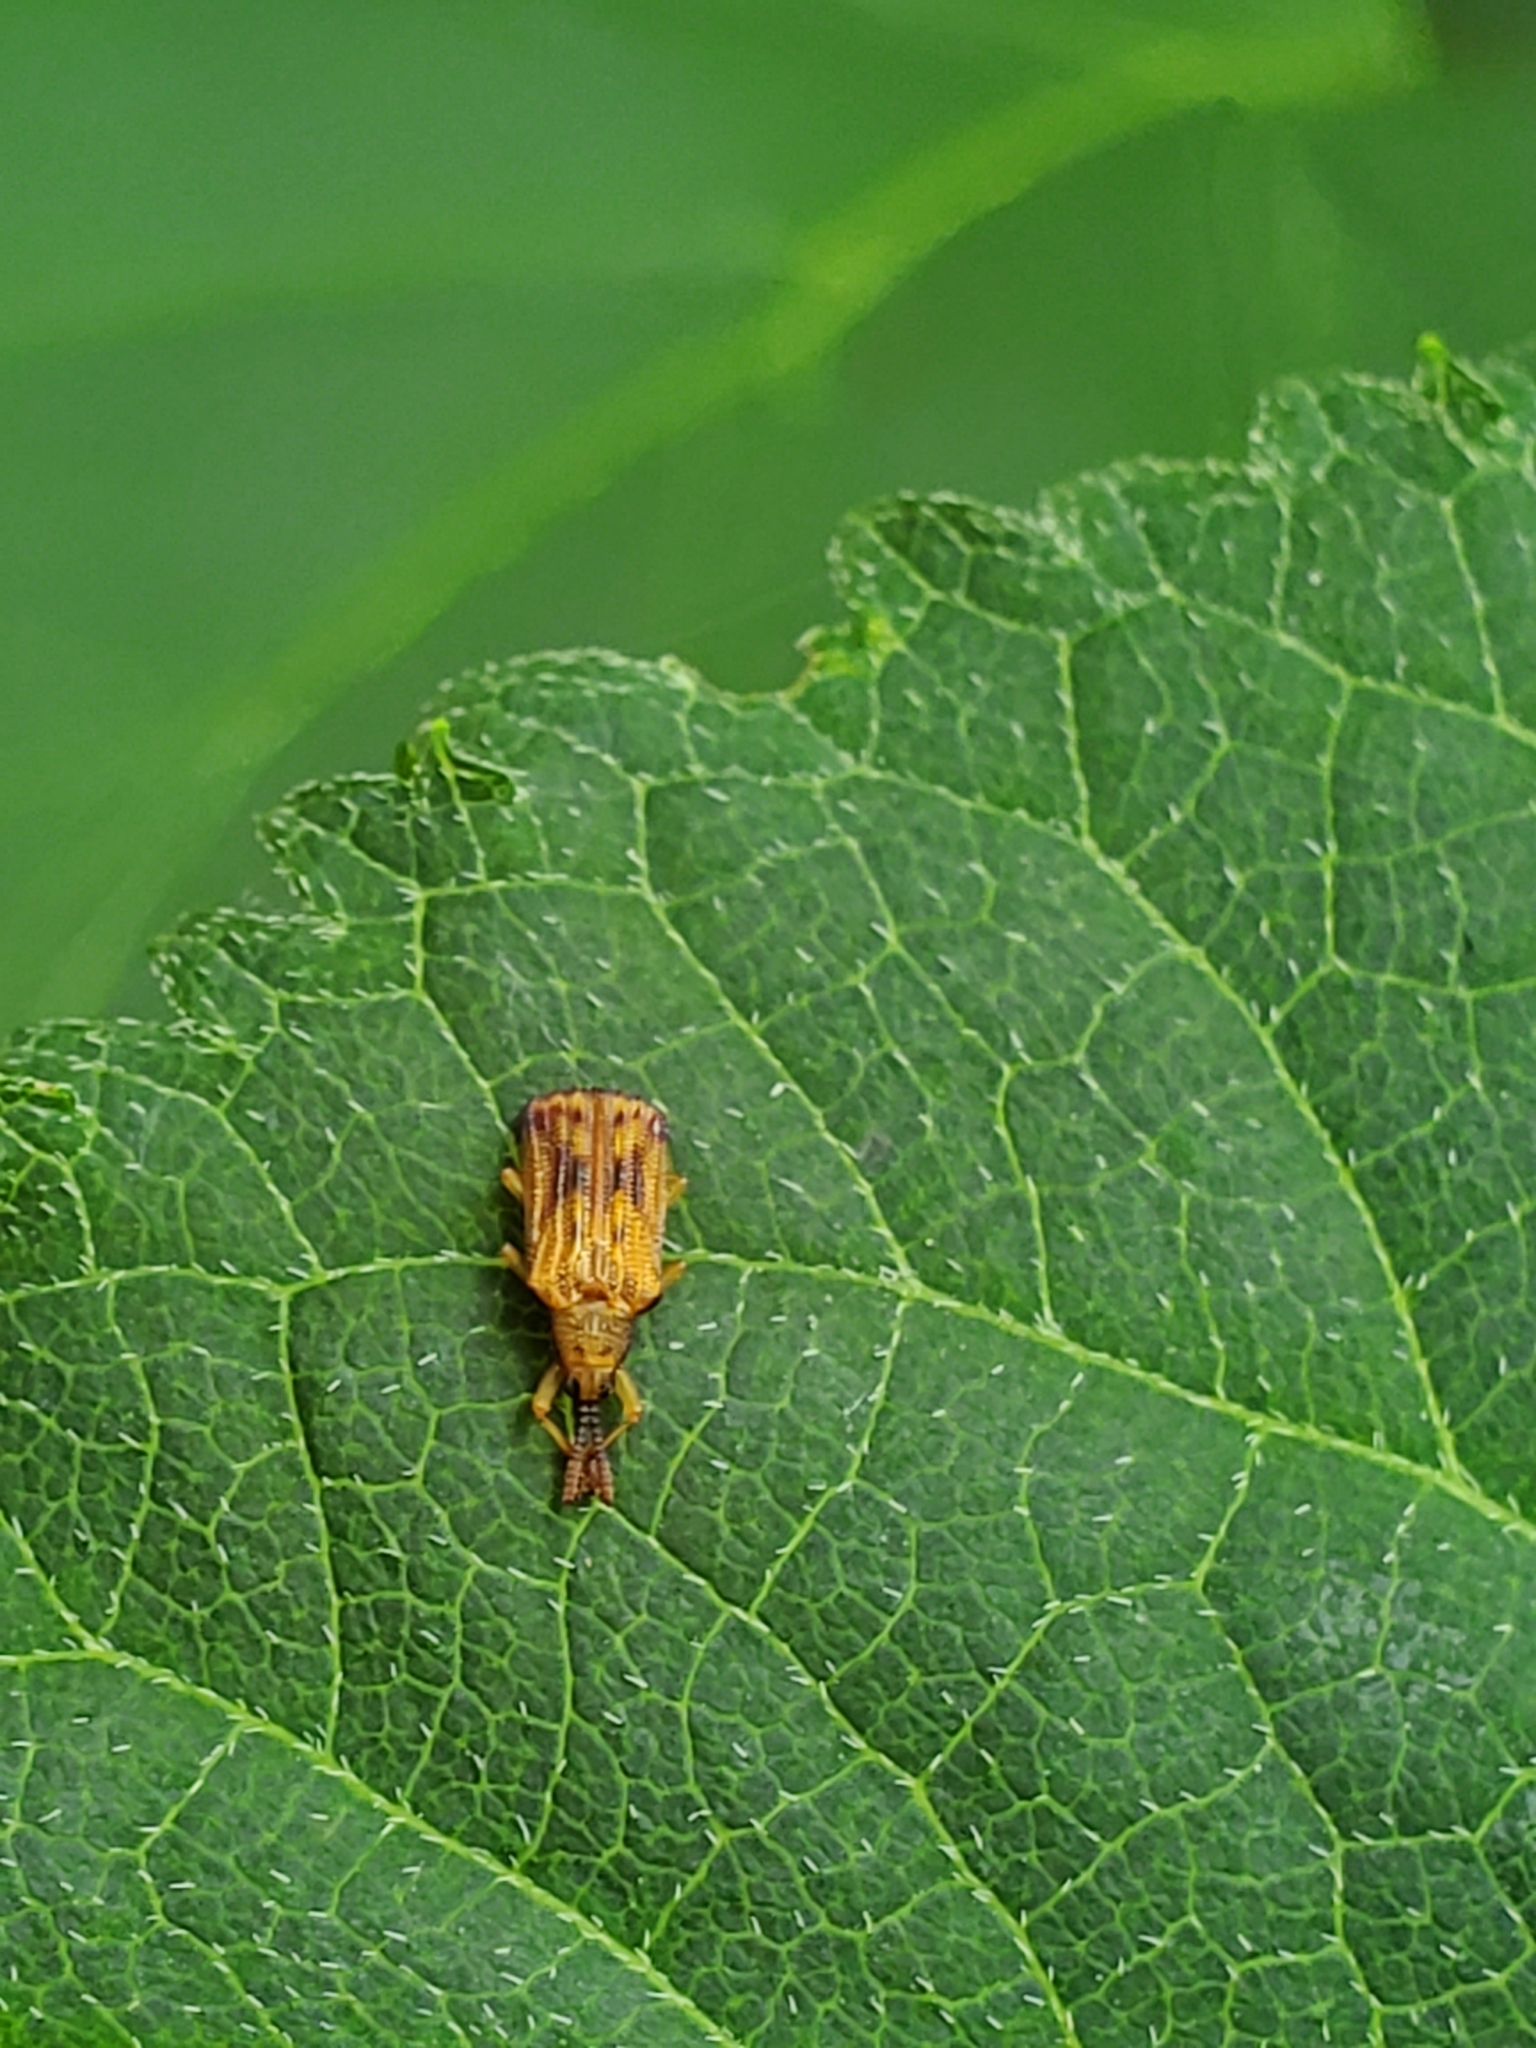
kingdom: Animalia
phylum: Arthropoda
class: Insecta
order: Coleoptera
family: Chrysomelidae
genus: Baliosus
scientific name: Baliosus nervosus
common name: Basswood leaf miner
